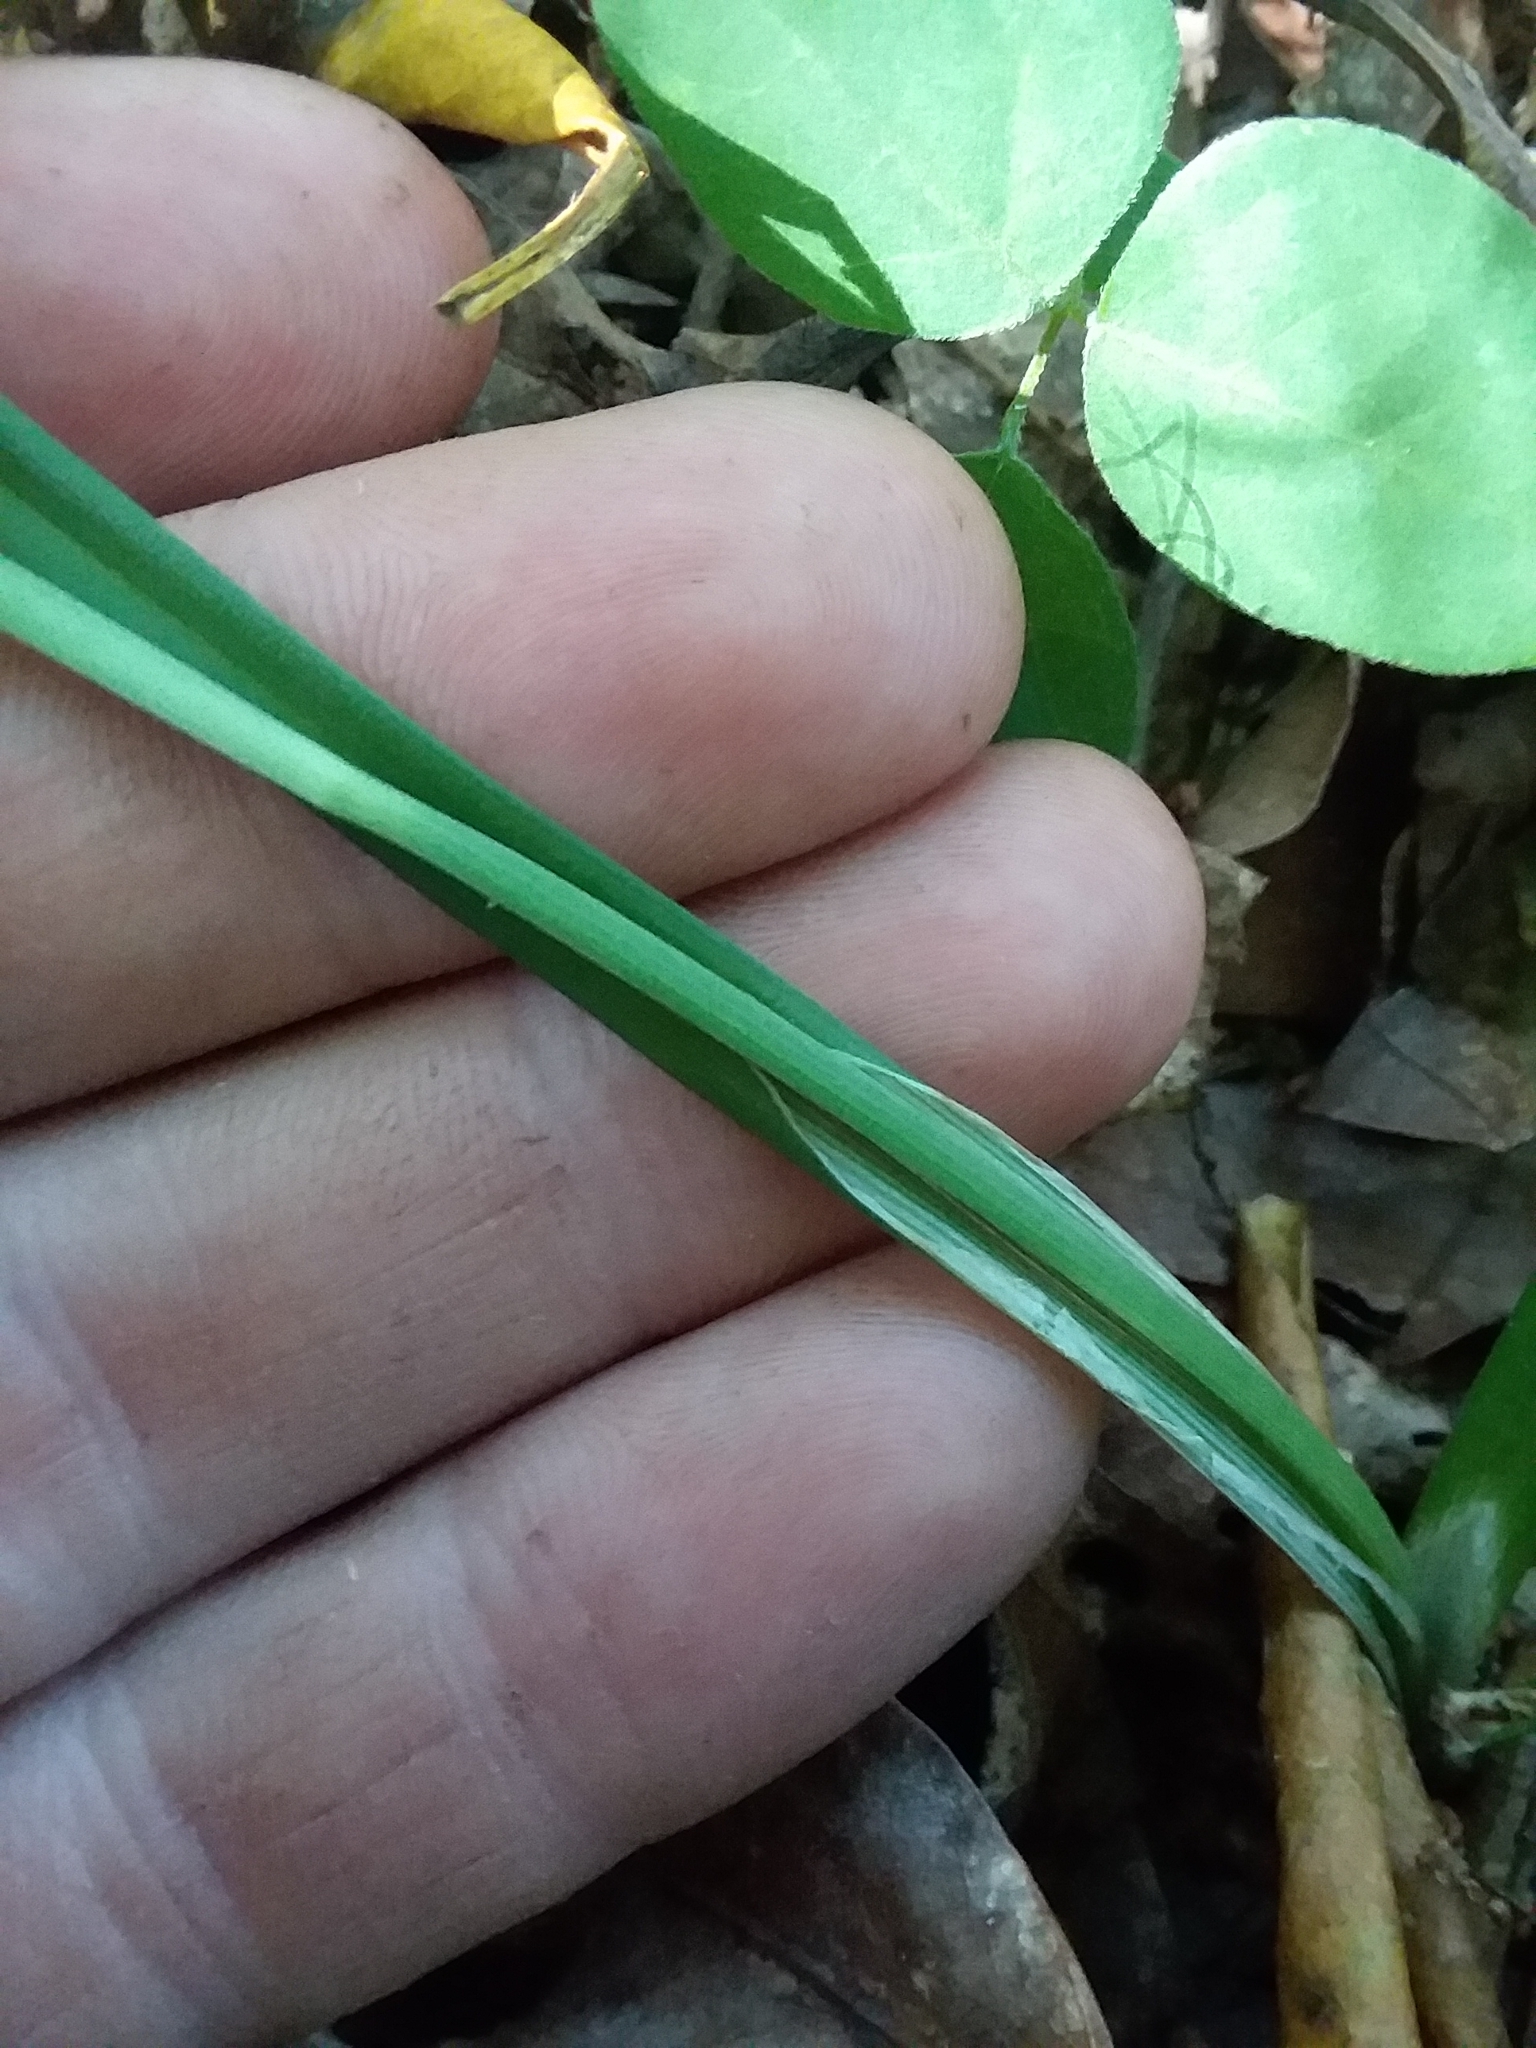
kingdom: Plantae
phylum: Tracheophyta
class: Liliopsida
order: Poales
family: Cyperaceae
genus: Carex
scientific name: Carex ignota
